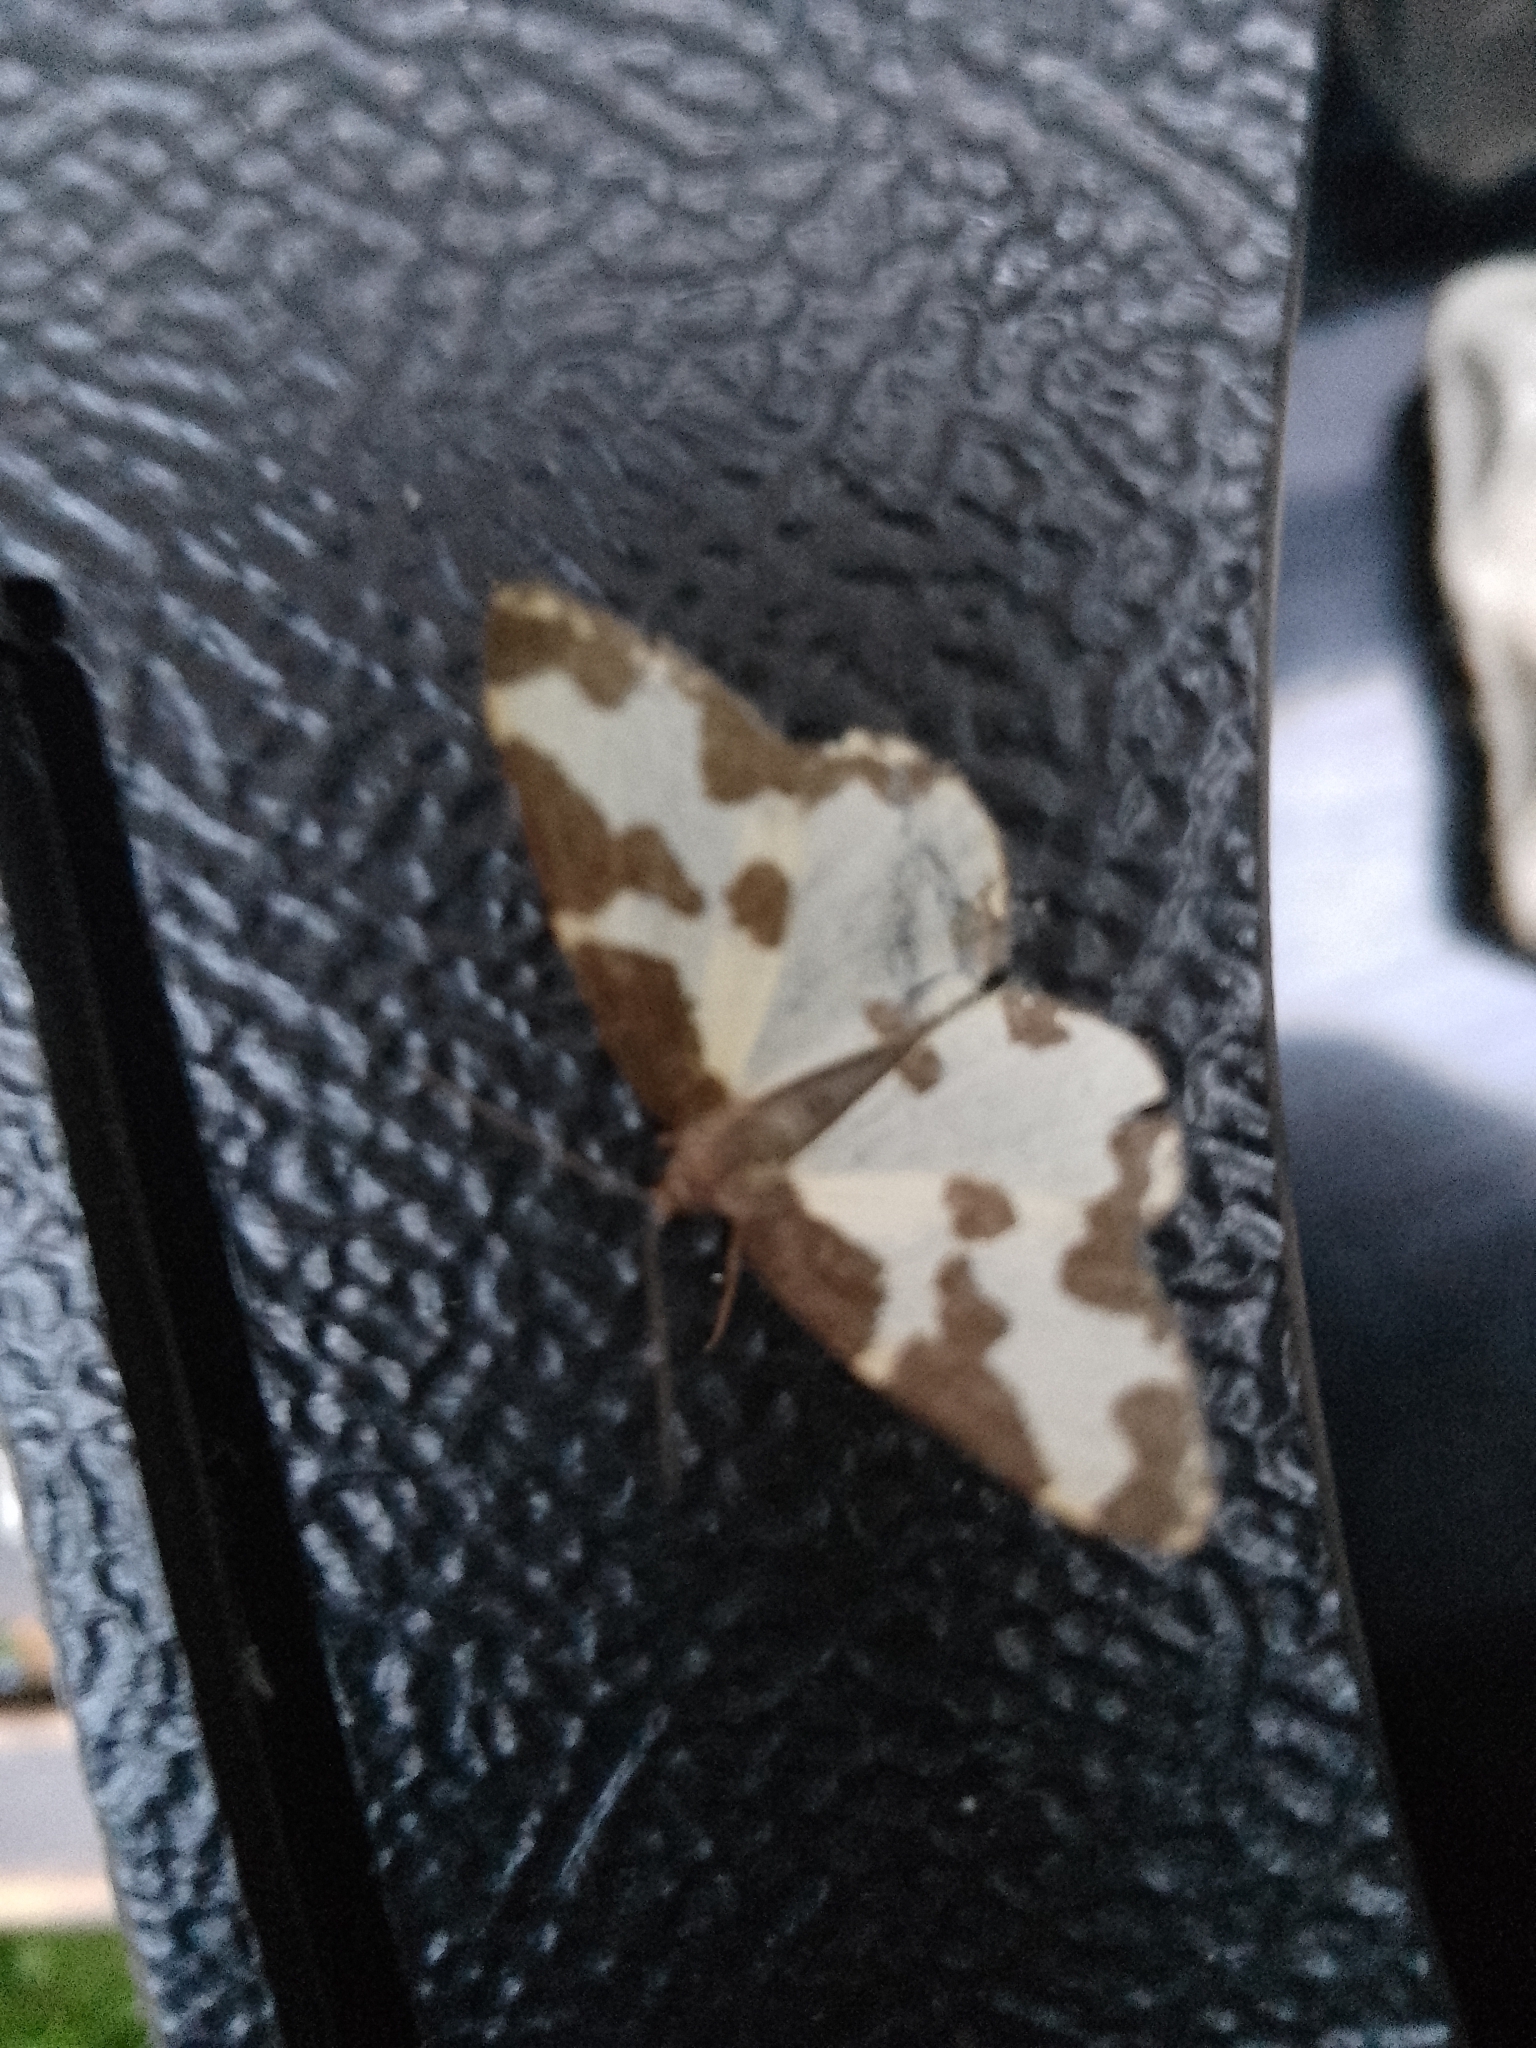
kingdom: Animalia
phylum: Arthropoda
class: Insecta
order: Lepidoptera
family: Geometridae
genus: Lomaspilis
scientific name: Lomaspilis marginata
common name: Clouded border
